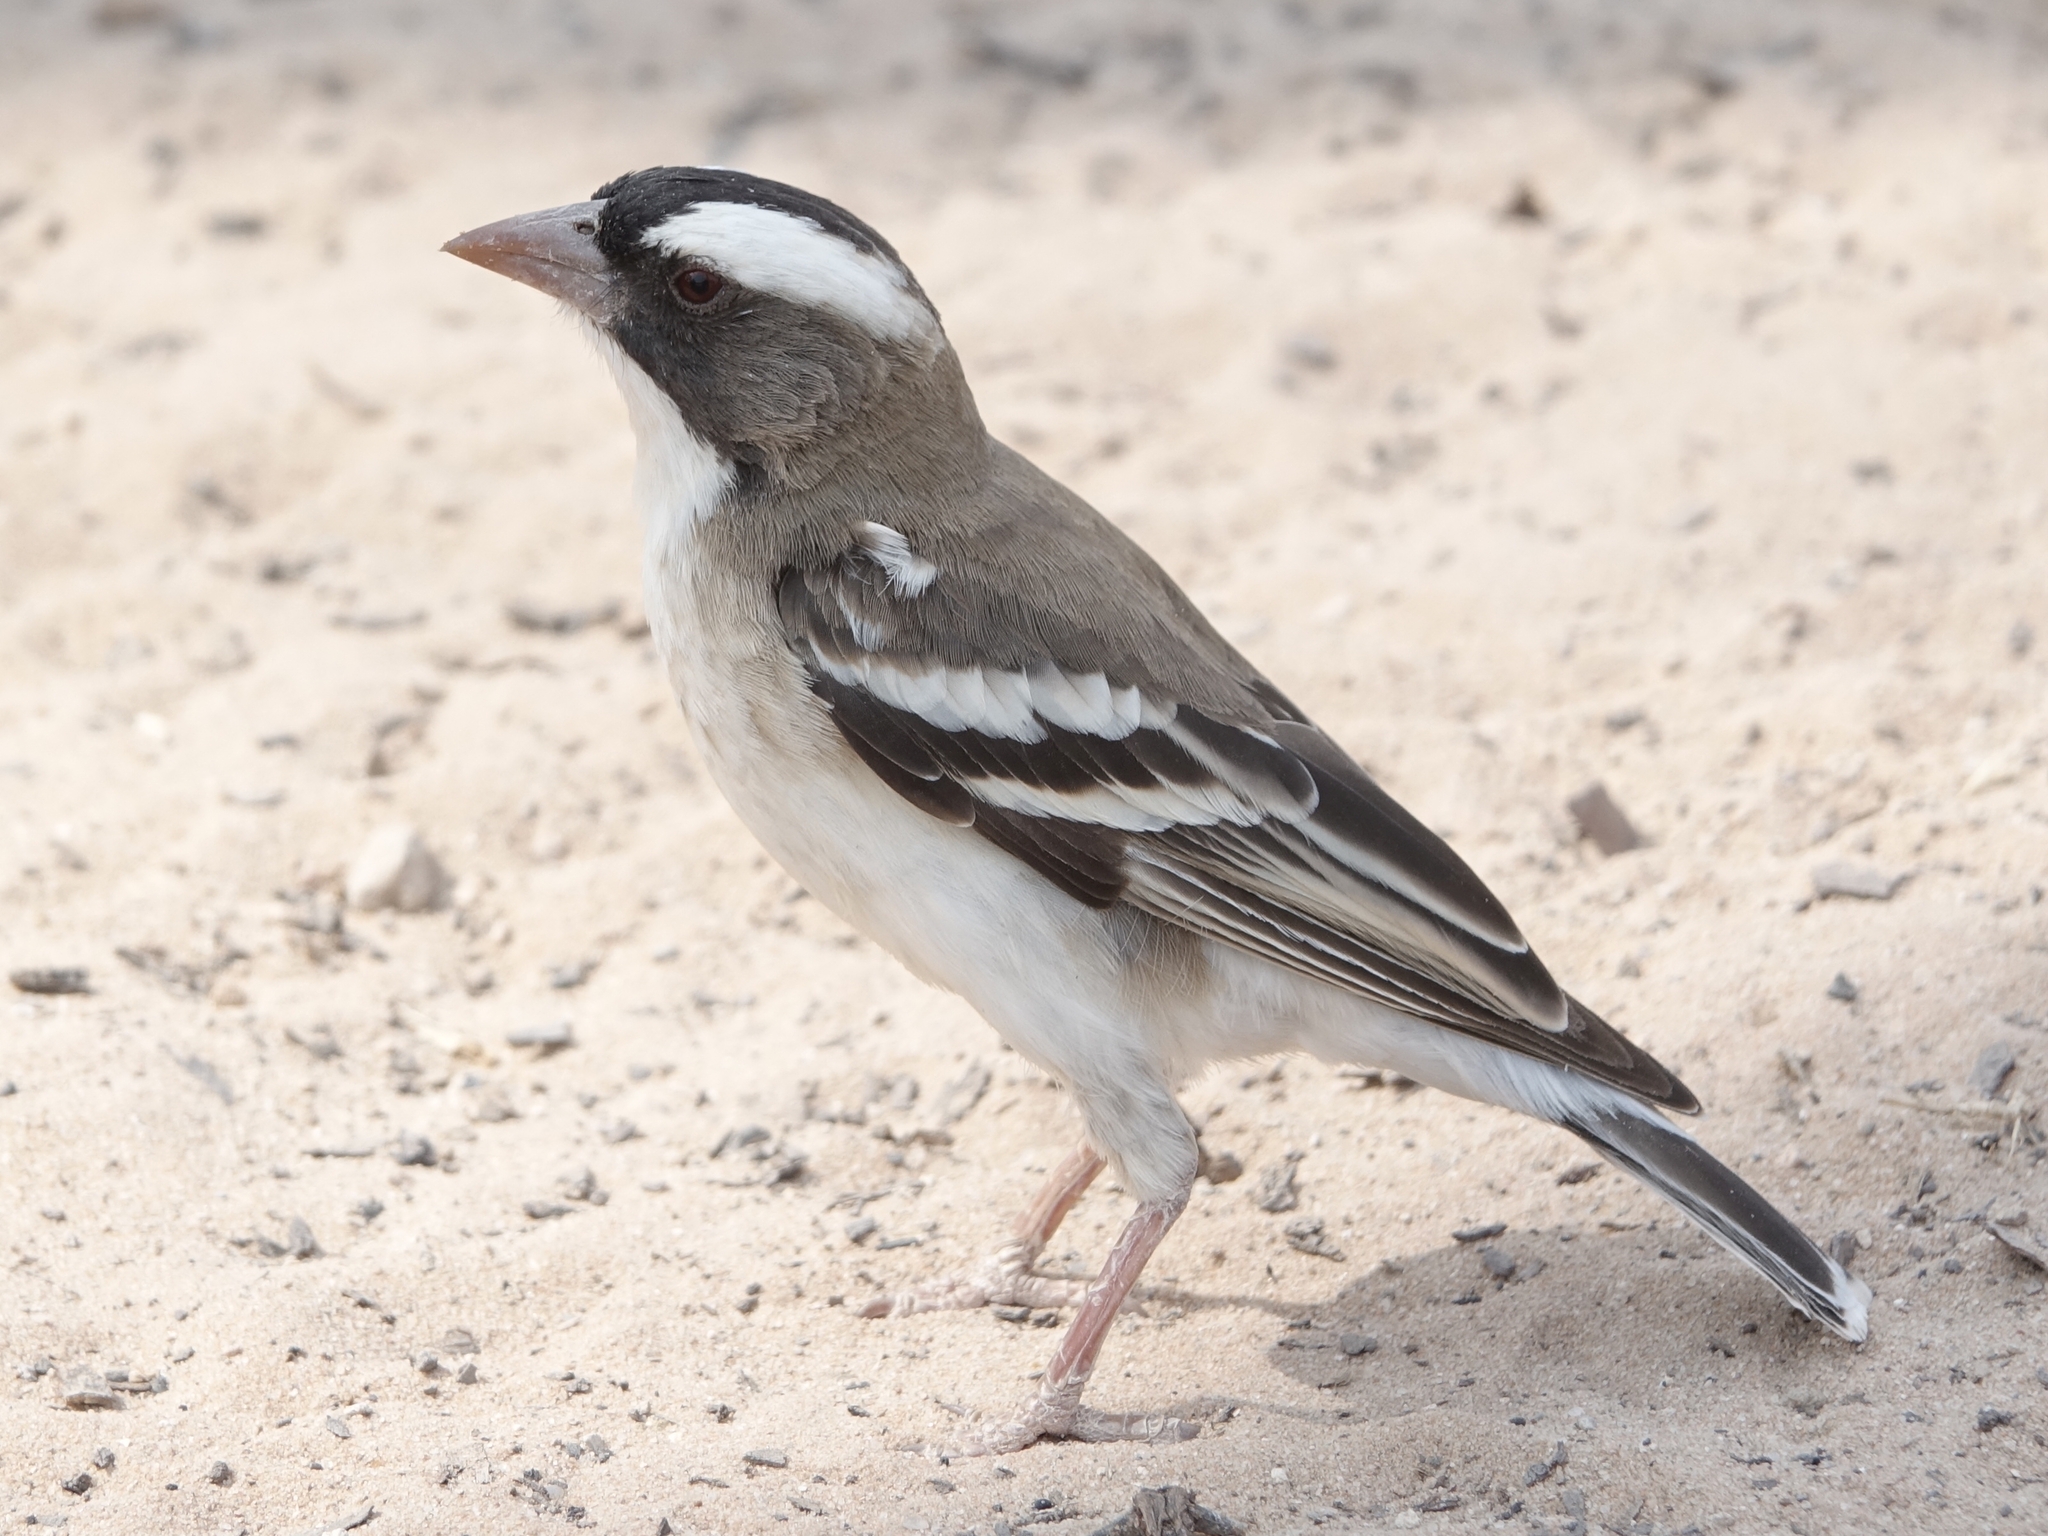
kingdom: Animalia
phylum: Chordata
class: Aves
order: Passeriformes
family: Passeridae
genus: Plocepasser
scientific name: Plocepasser mahali
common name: White-browed sparrow-weaver
